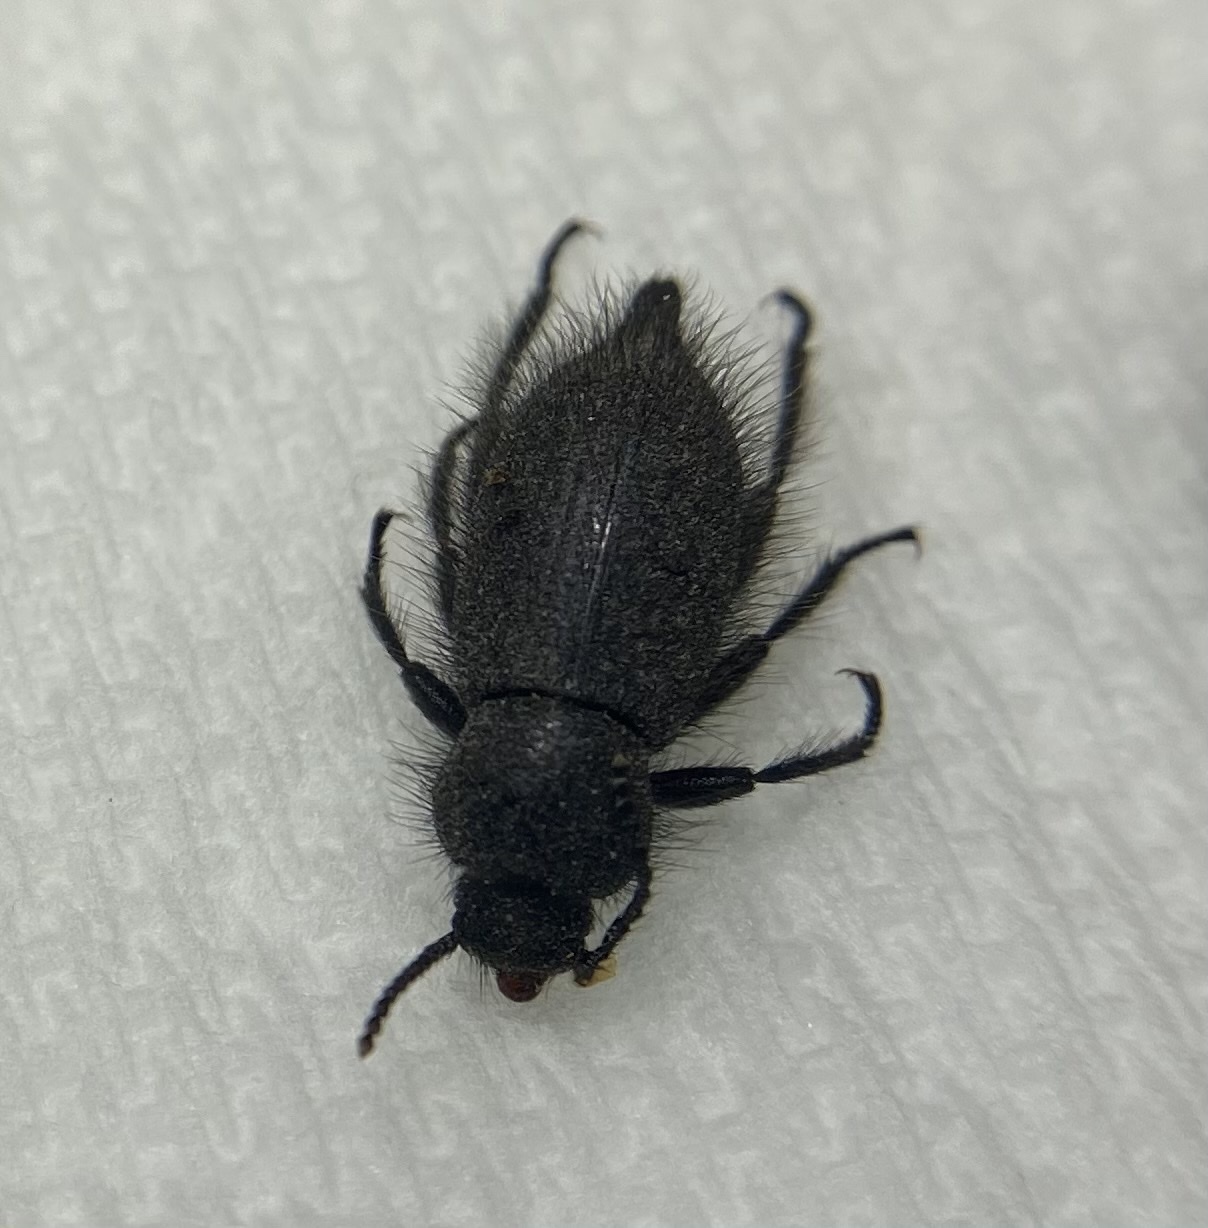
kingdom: Animalia
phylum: Arthropoda
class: Insecta
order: Coleoptera
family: Tenebrionidae
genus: Eleodes
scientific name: Eleodes tribulus
